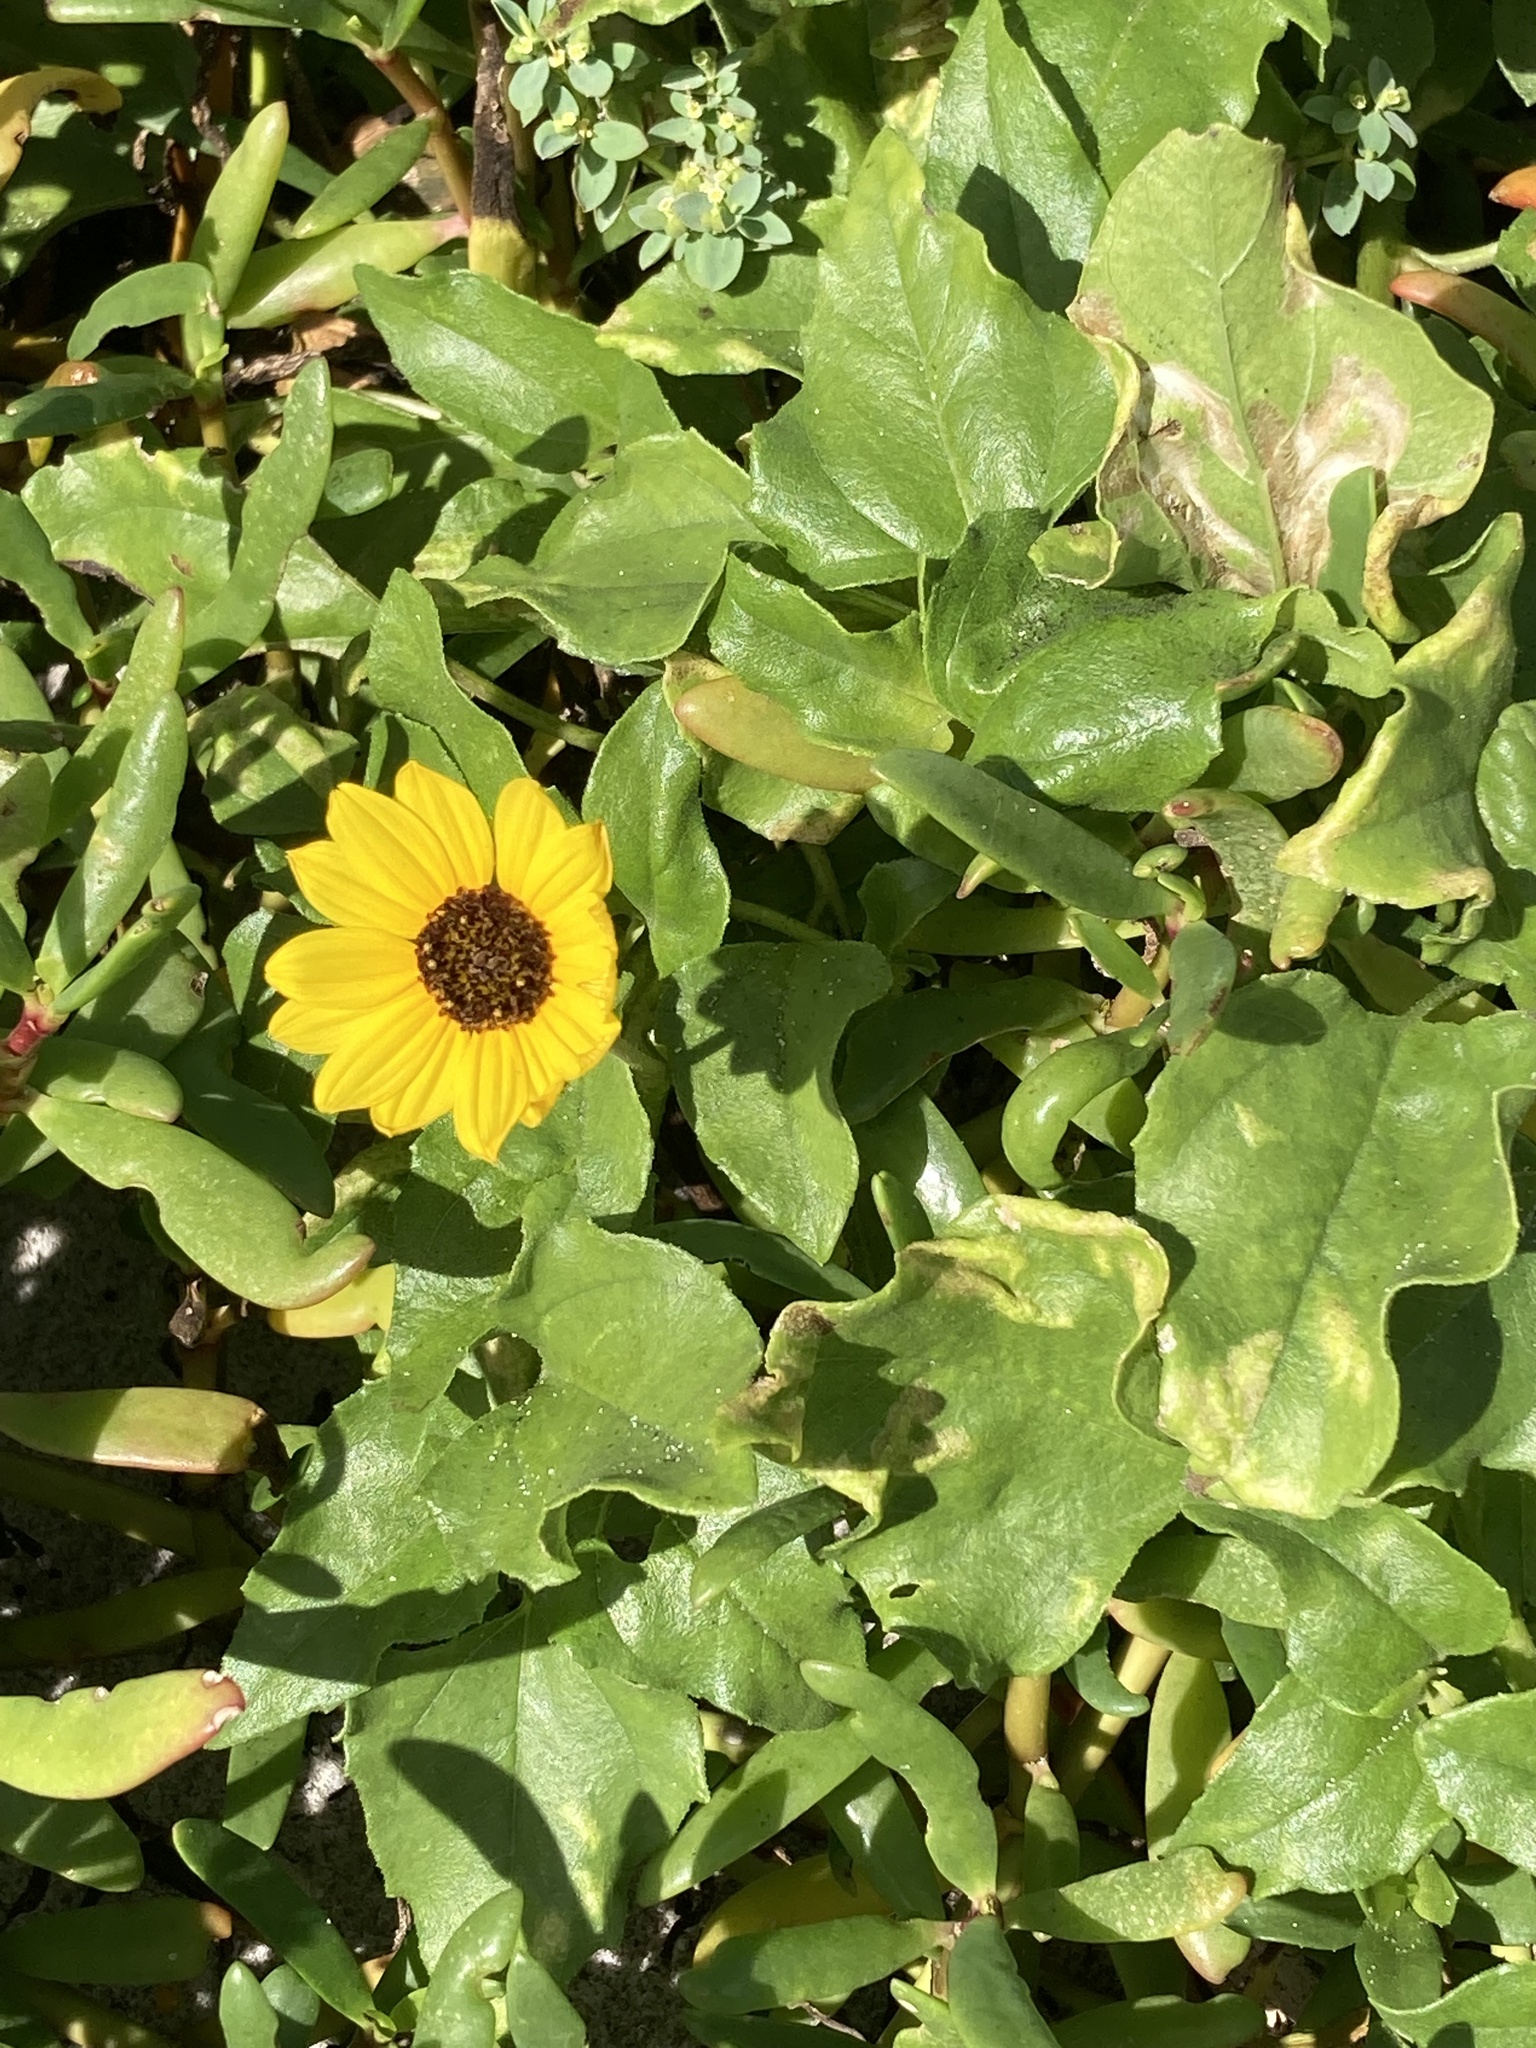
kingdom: Plantae
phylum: Tracheophyta
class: Magnoliopsida
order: Asterales
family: Asteraceae
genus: Helianthus
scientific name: Helianthus debilis
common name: Weak sunflower
